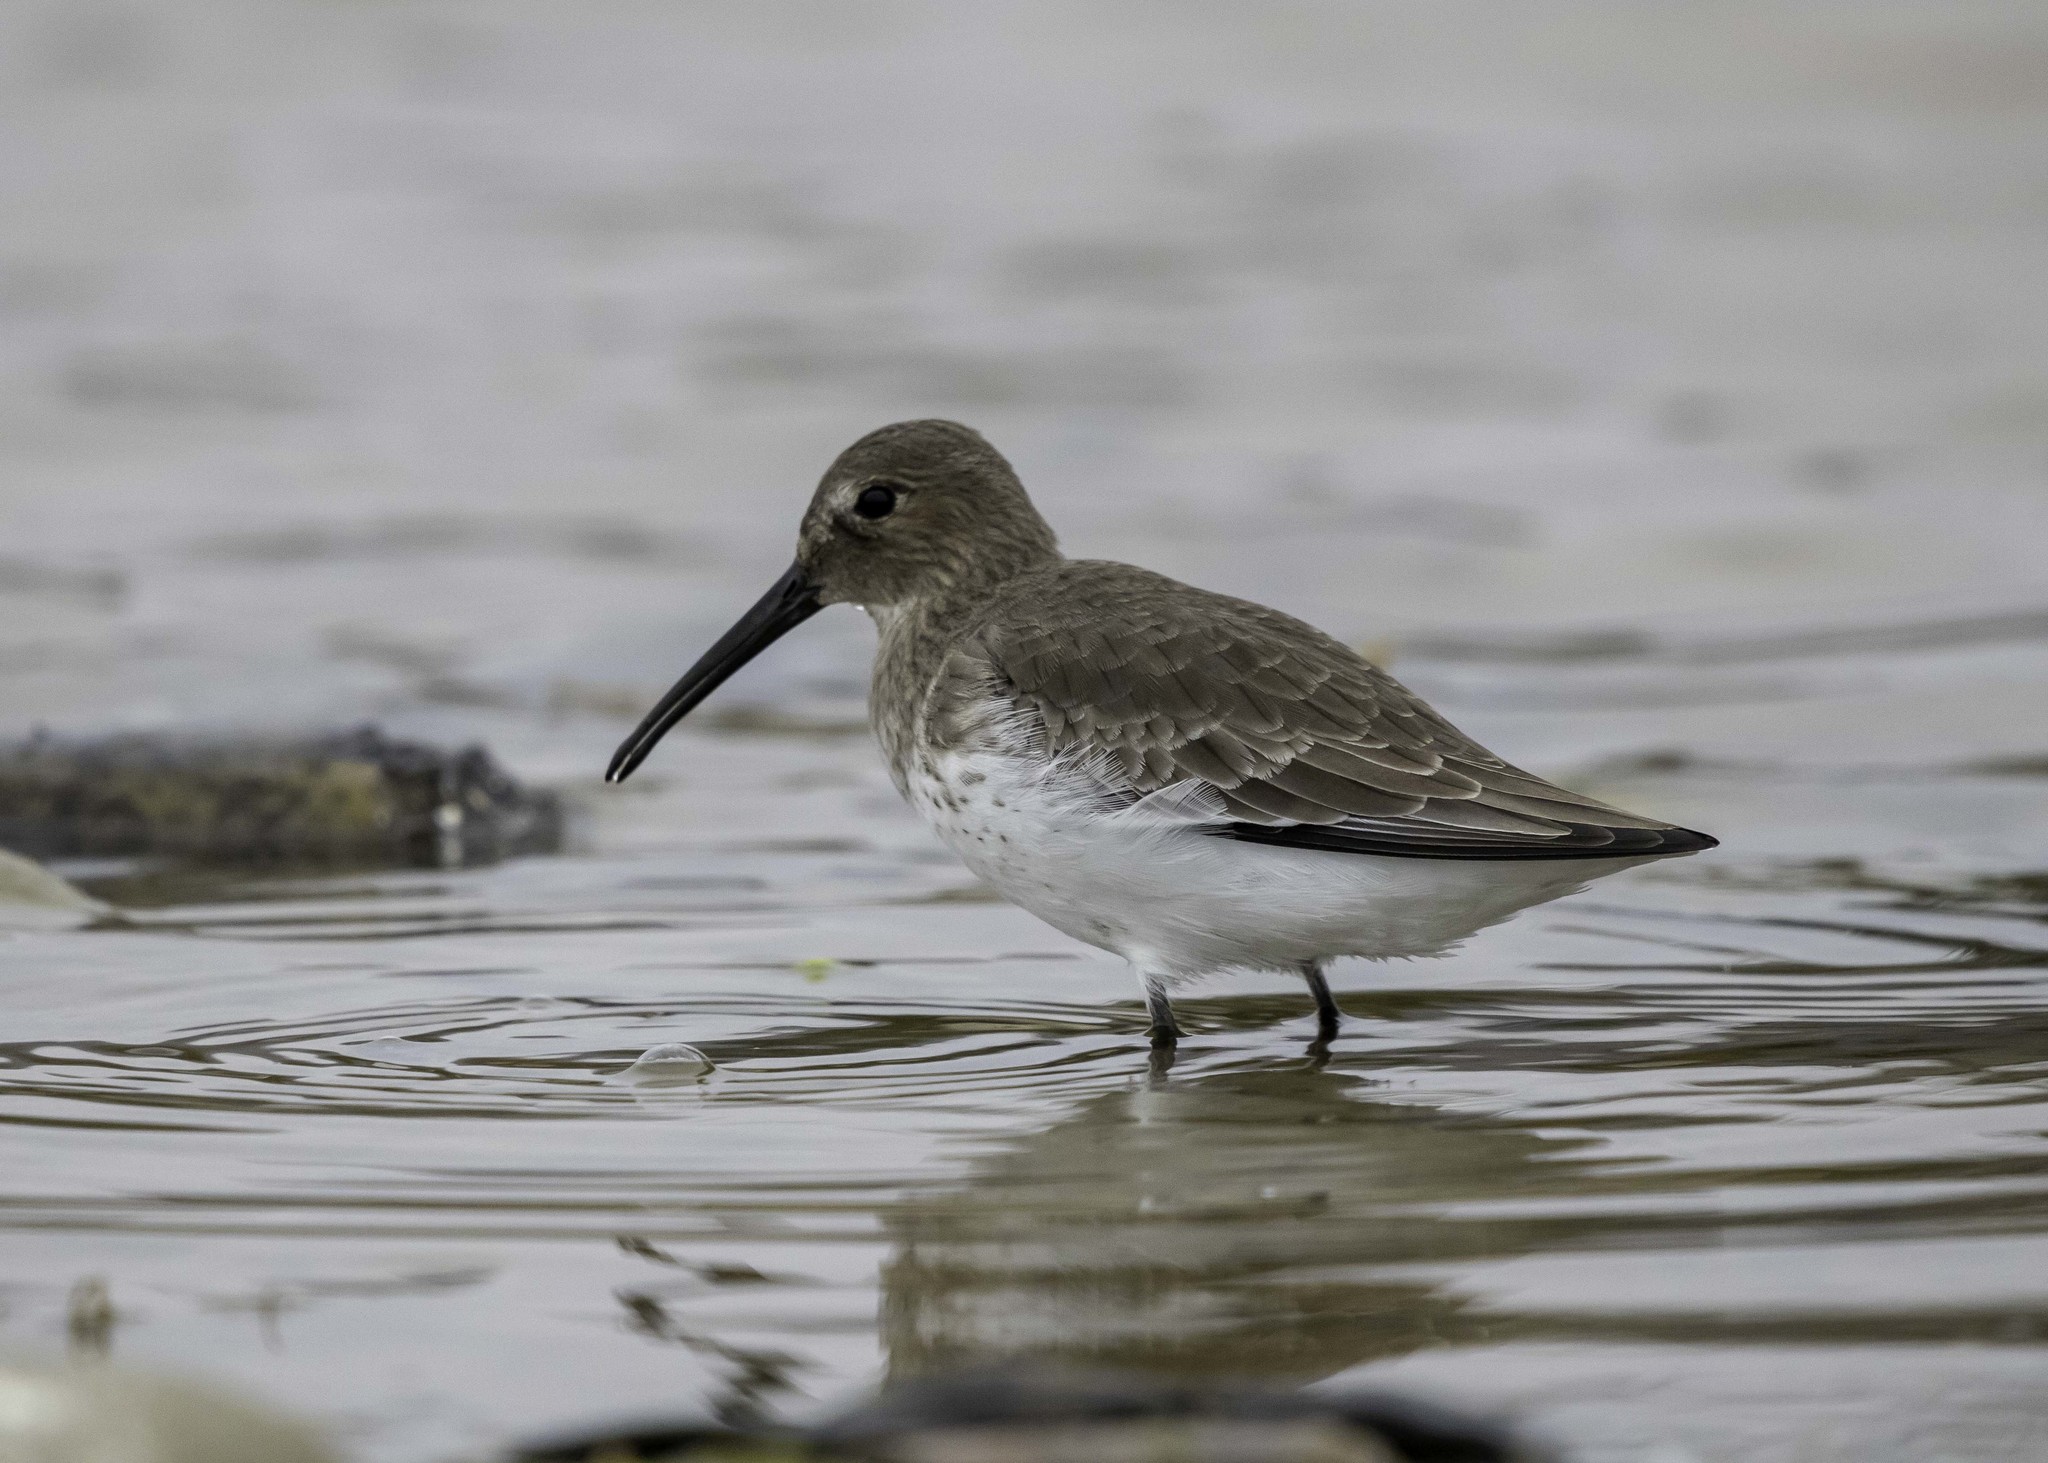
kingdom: Animalia
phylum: Chordata
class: Aves
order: Charadriiformes
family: Scolopacidae
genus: Calidris
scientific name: Calidris alpina
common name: Dunlin
